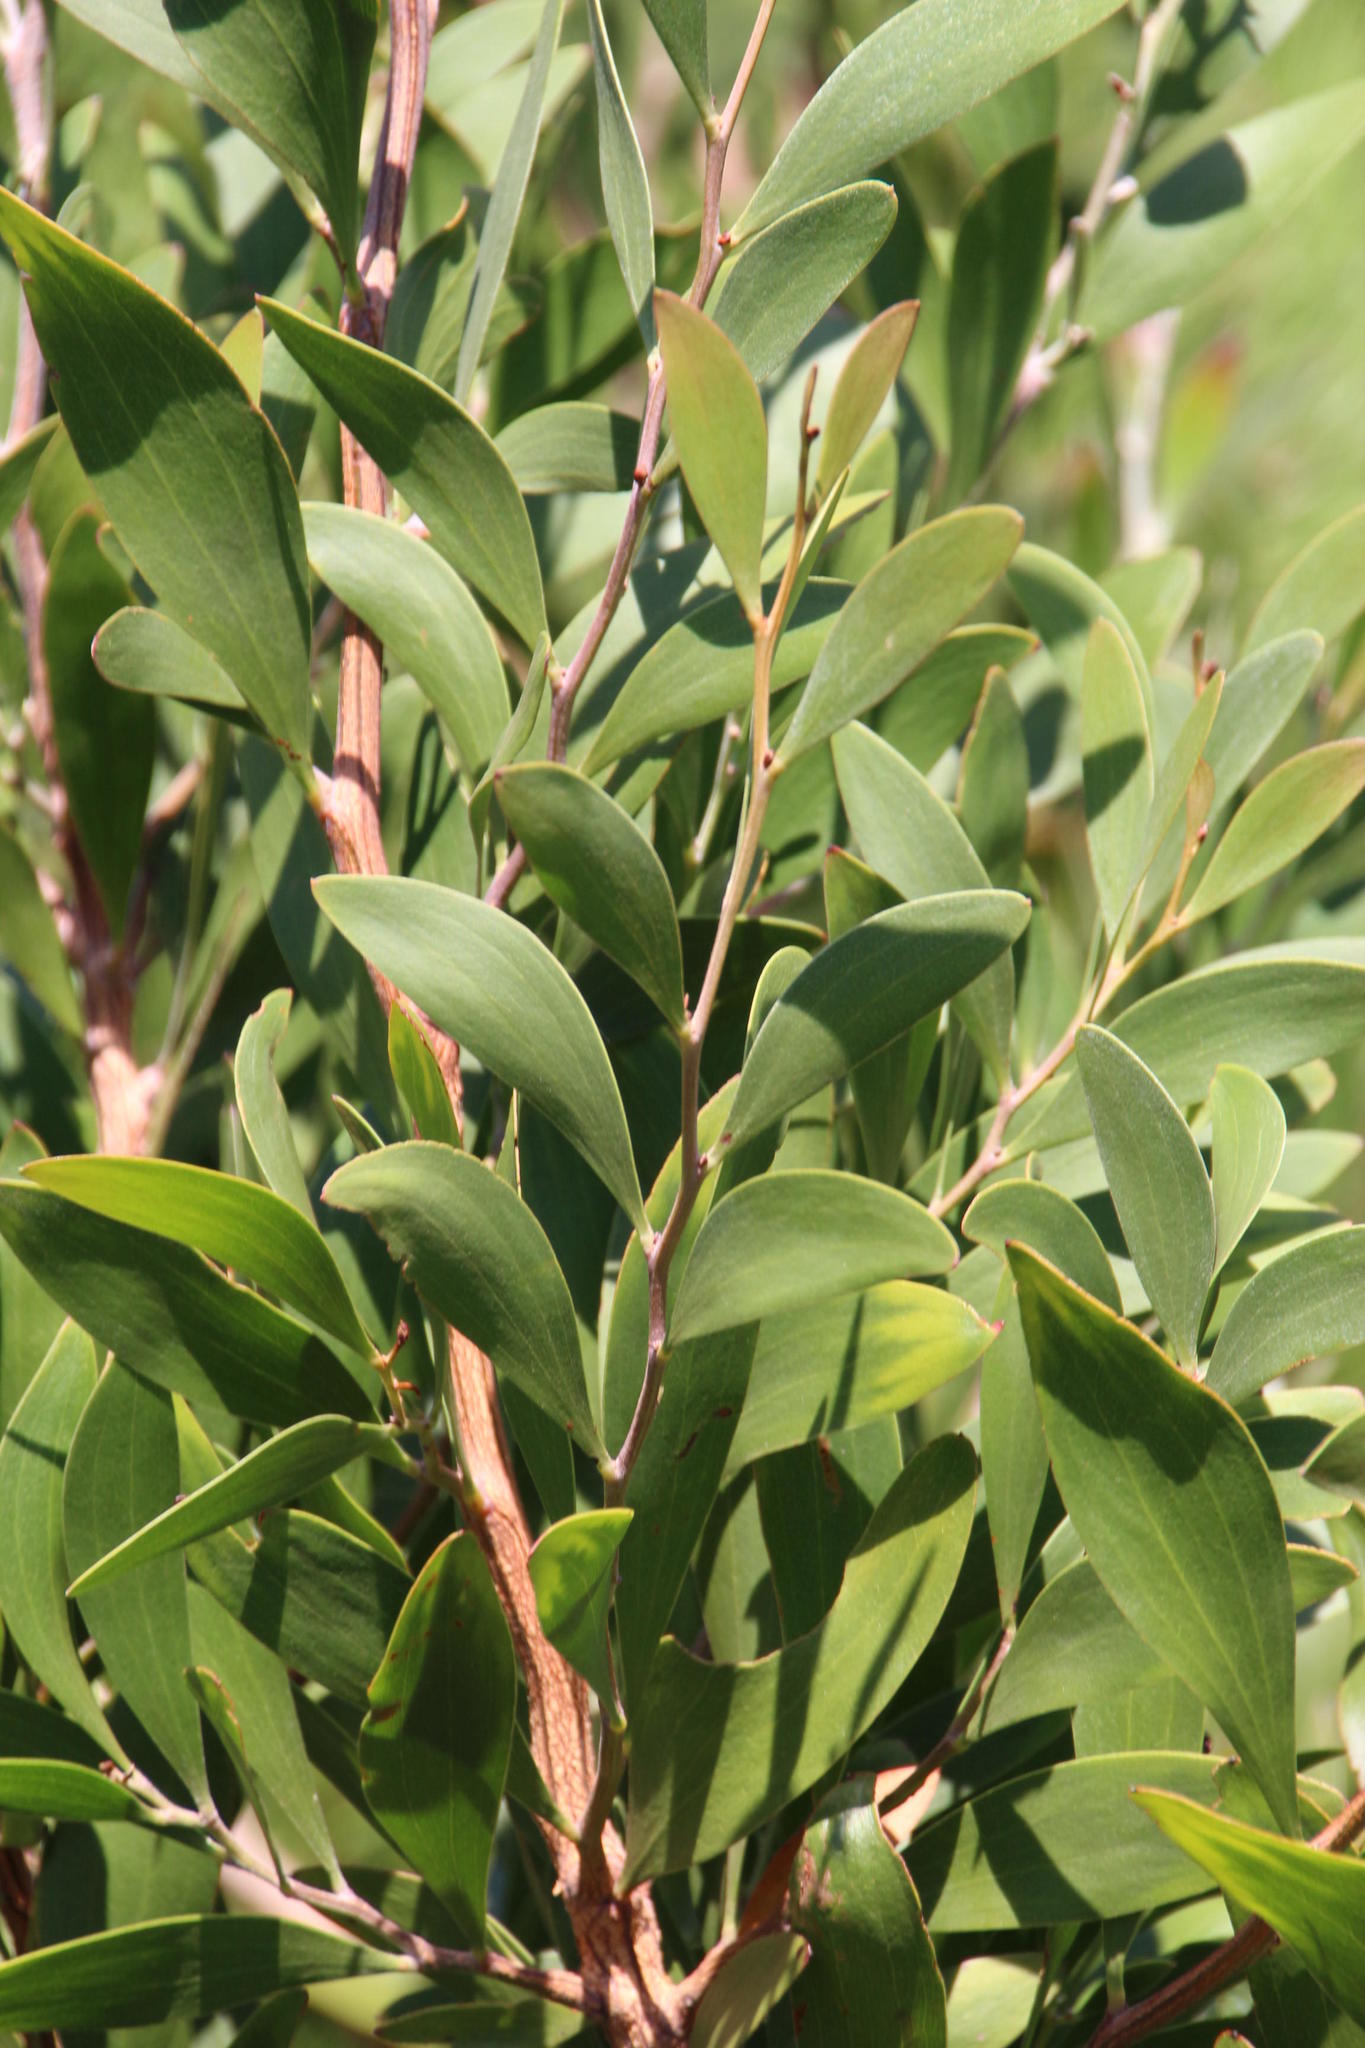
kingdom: Plantae
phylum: Tracheophyta
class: Magnoliopsida
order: Fabales
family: Fabaceae
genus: Acacia
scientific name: Acacia melanoxylon
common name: Blackwood
